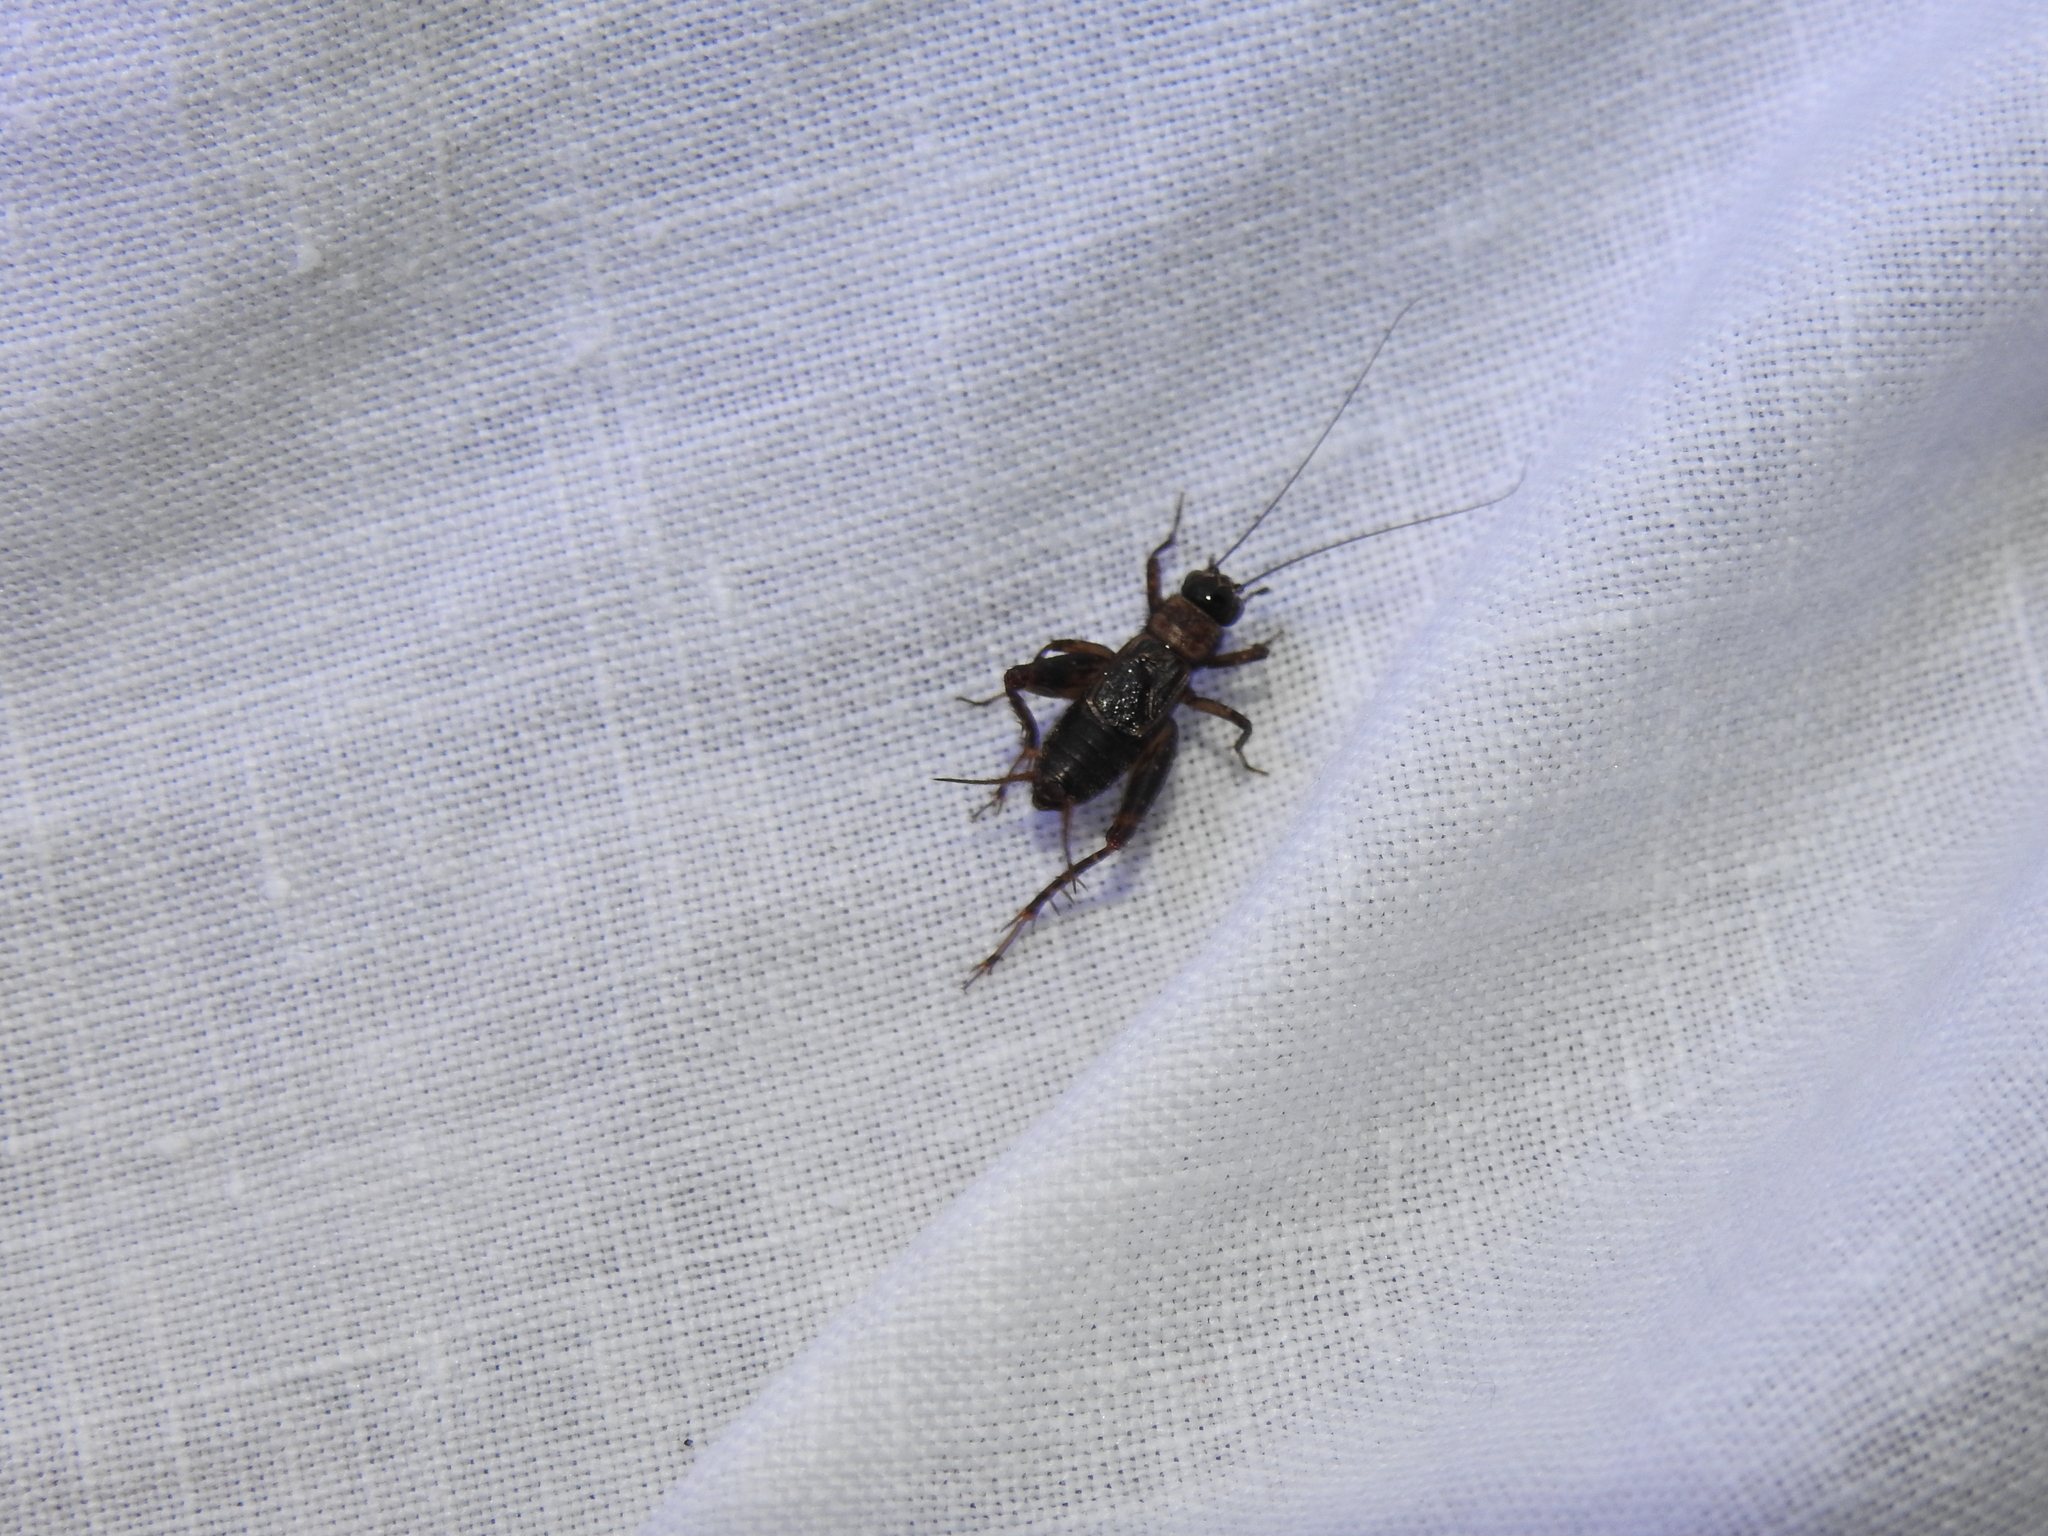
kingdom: Animalia
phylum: Arthropoda
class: Insecta
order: Orthoptera
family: Trigonidiidae
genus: Nemobius
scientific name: Nemobius sylvestris
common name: Wood-cricket
